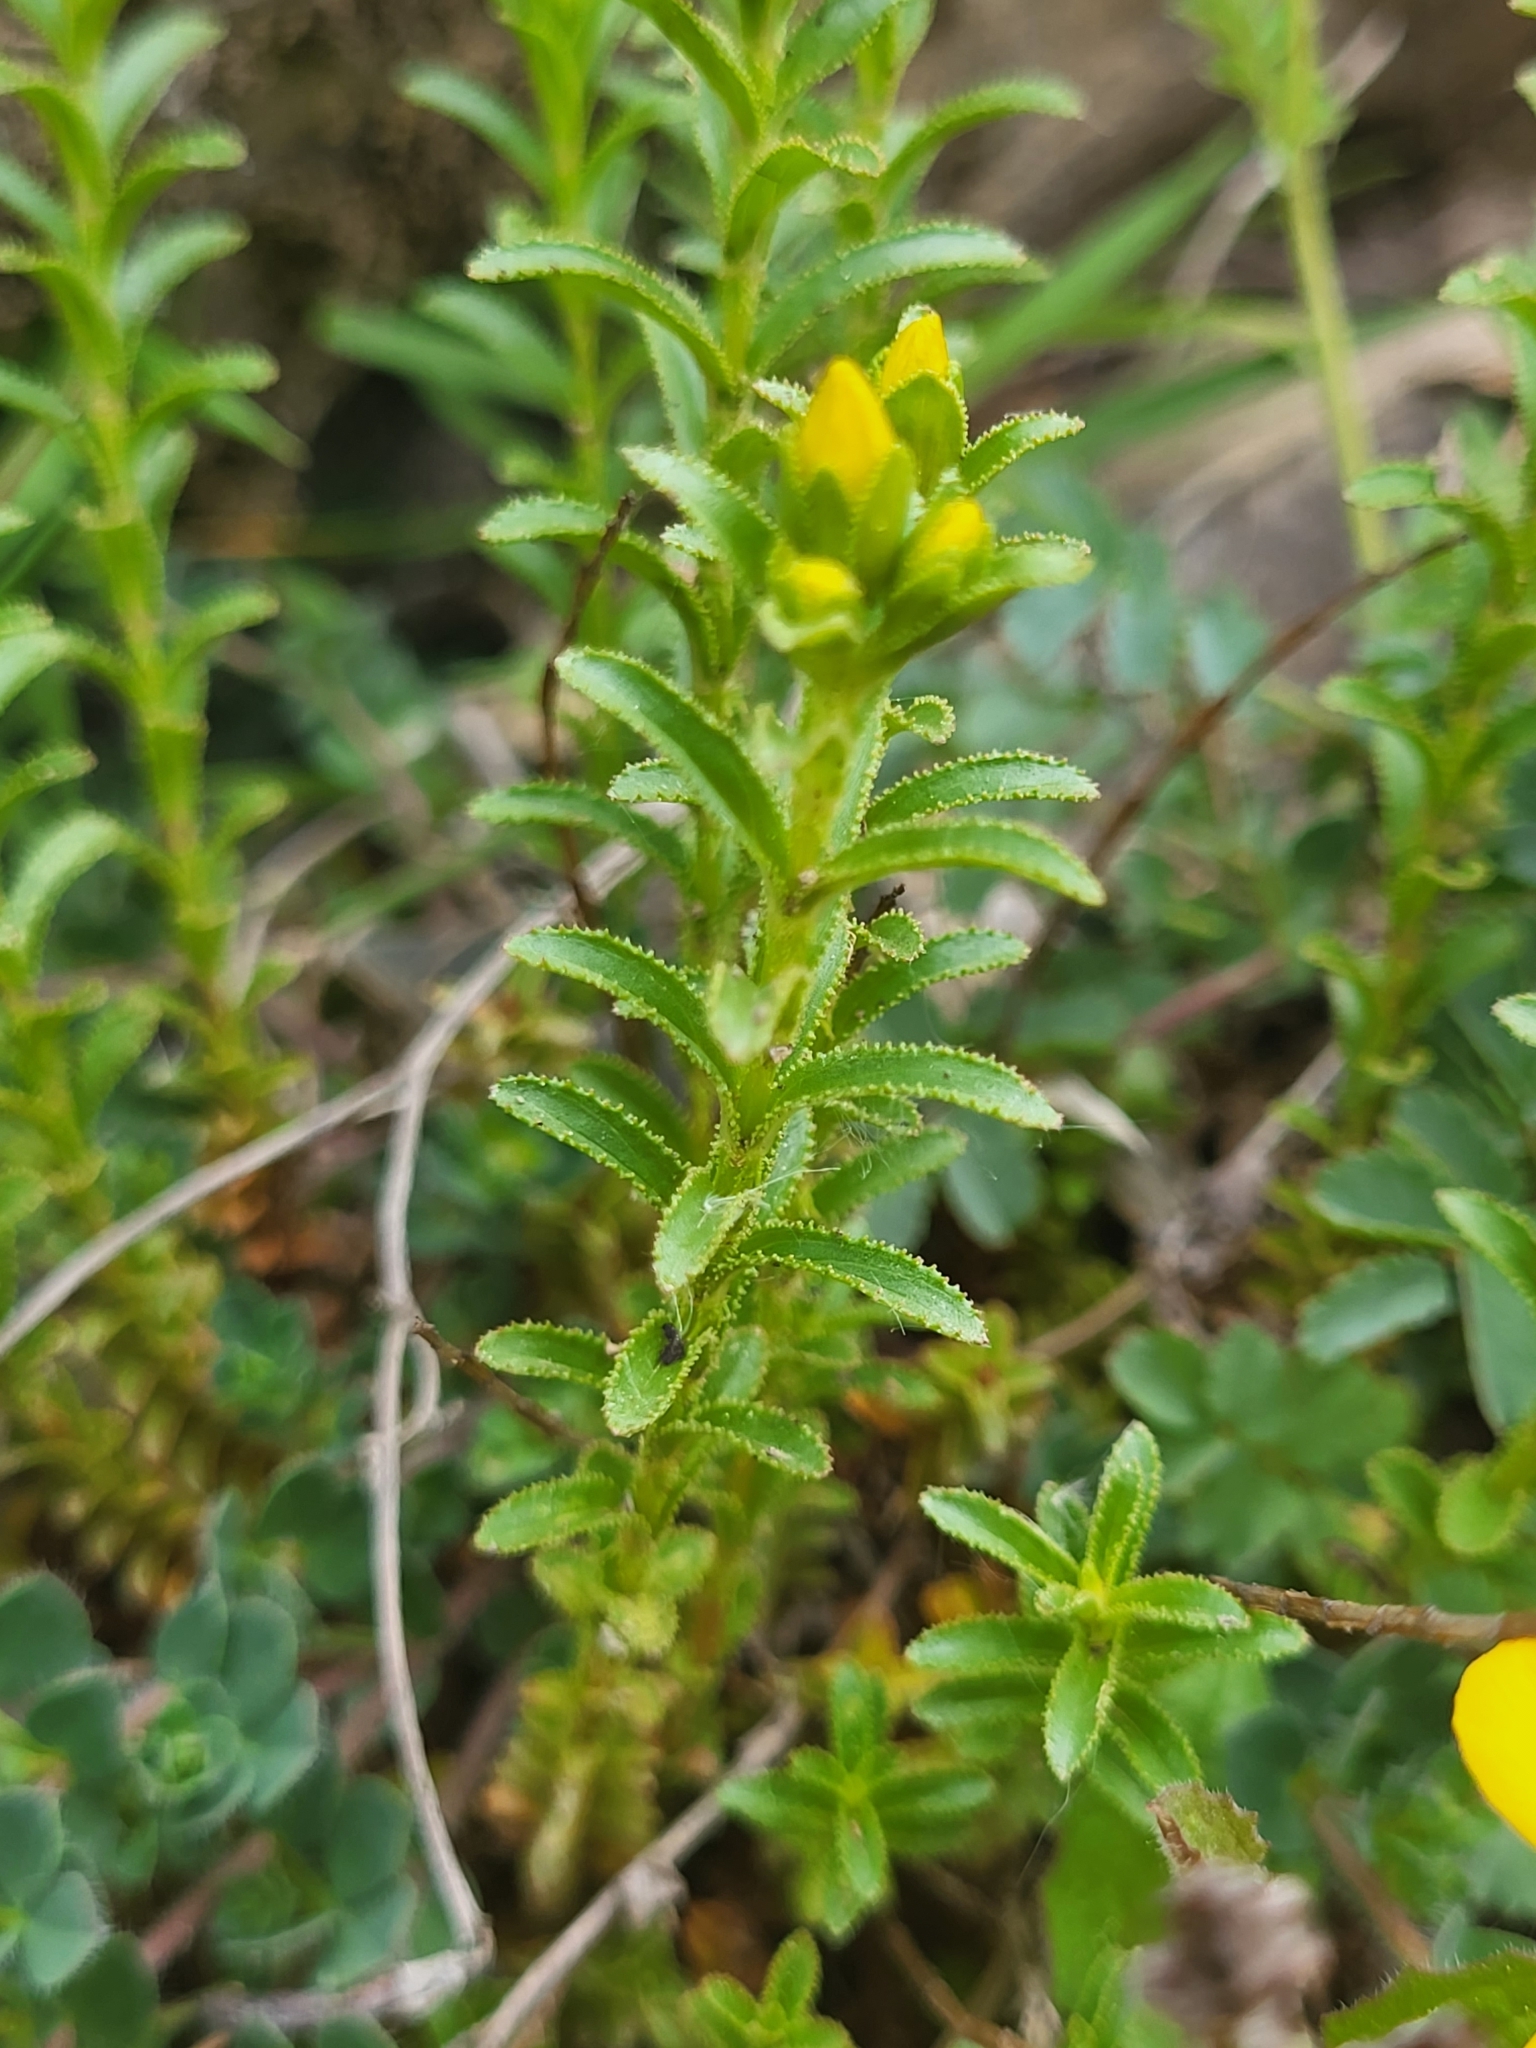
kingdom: Plantae
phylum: Tracheophyta
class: Magnoliopsida
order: Malpighiales
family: Hypericaceae
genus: Hypericum
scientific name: Hypericum orientale
